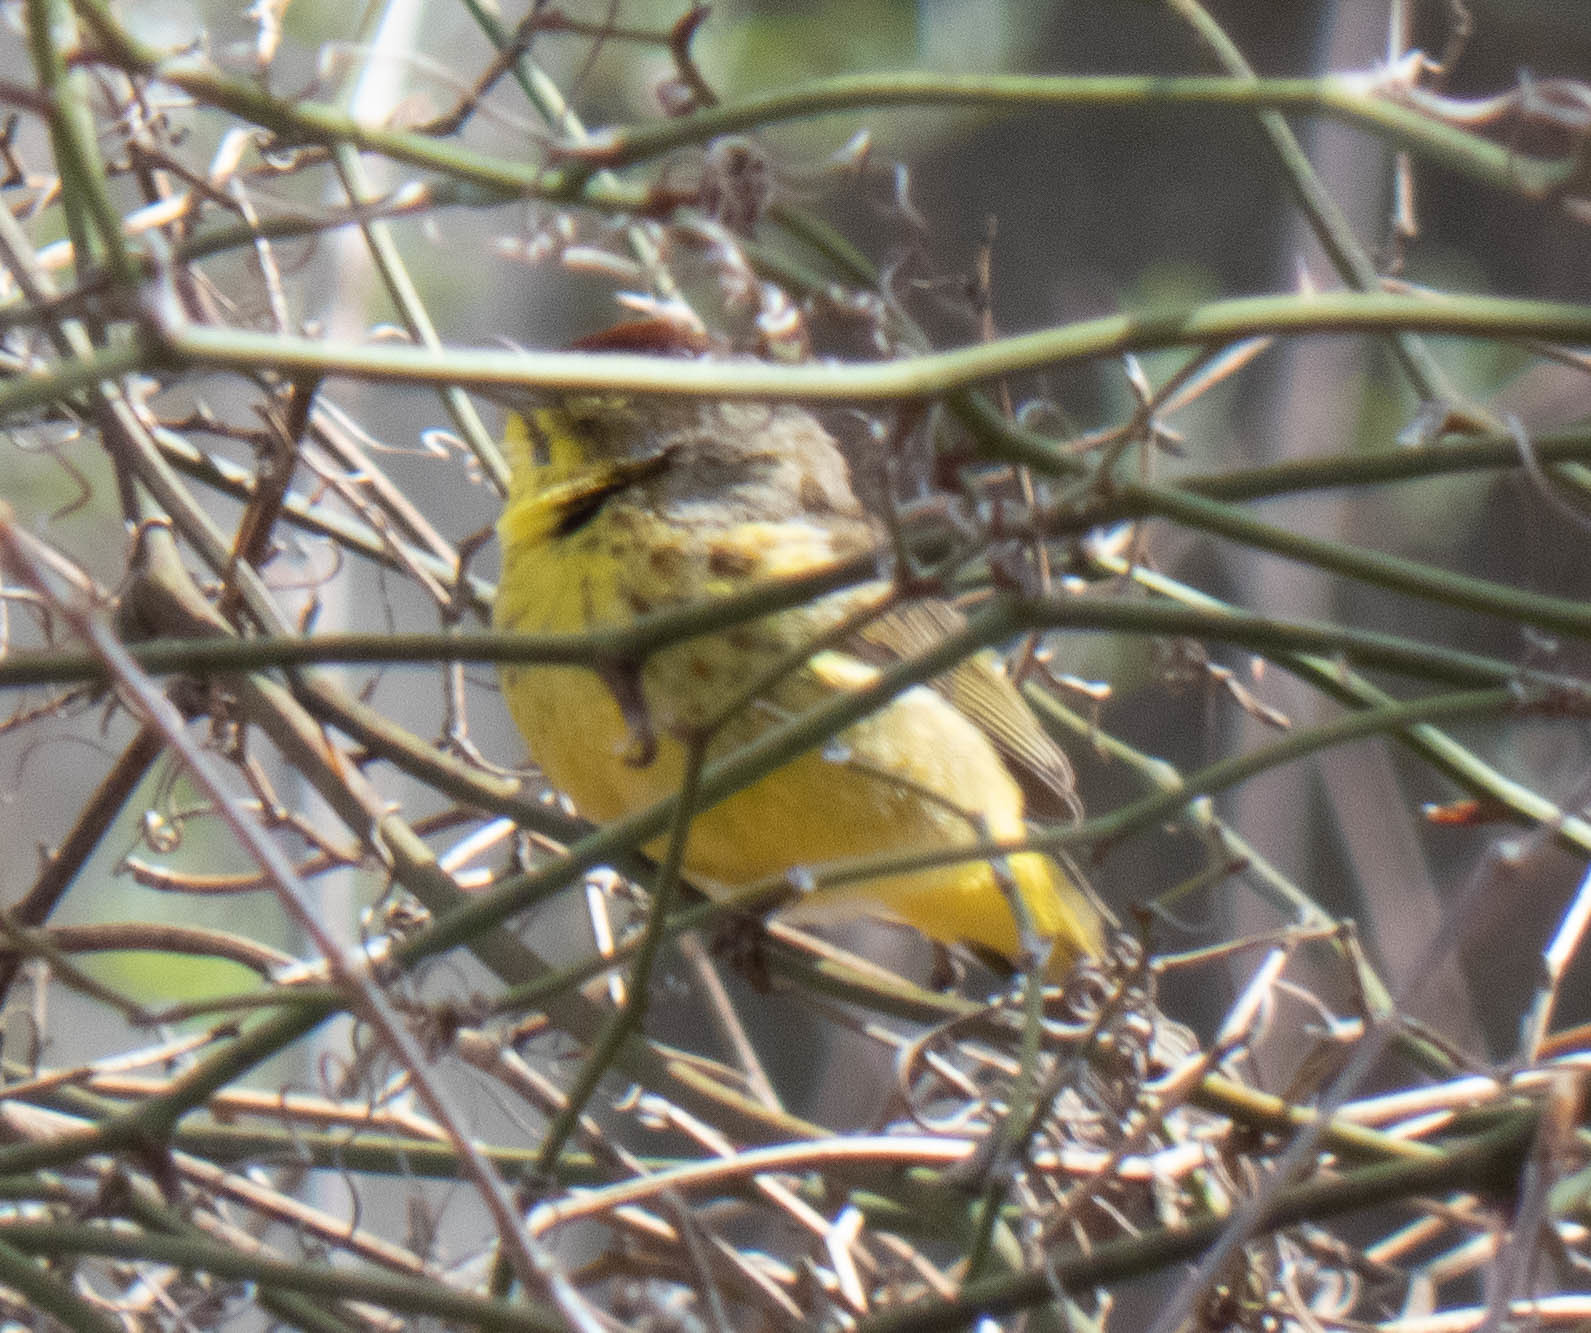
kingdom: Animalia
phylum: Chordata
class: Aves
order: Passeriformes
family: Parulidae
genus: Setophaga
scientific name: Setophaga palmarum
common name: Palm warbler
